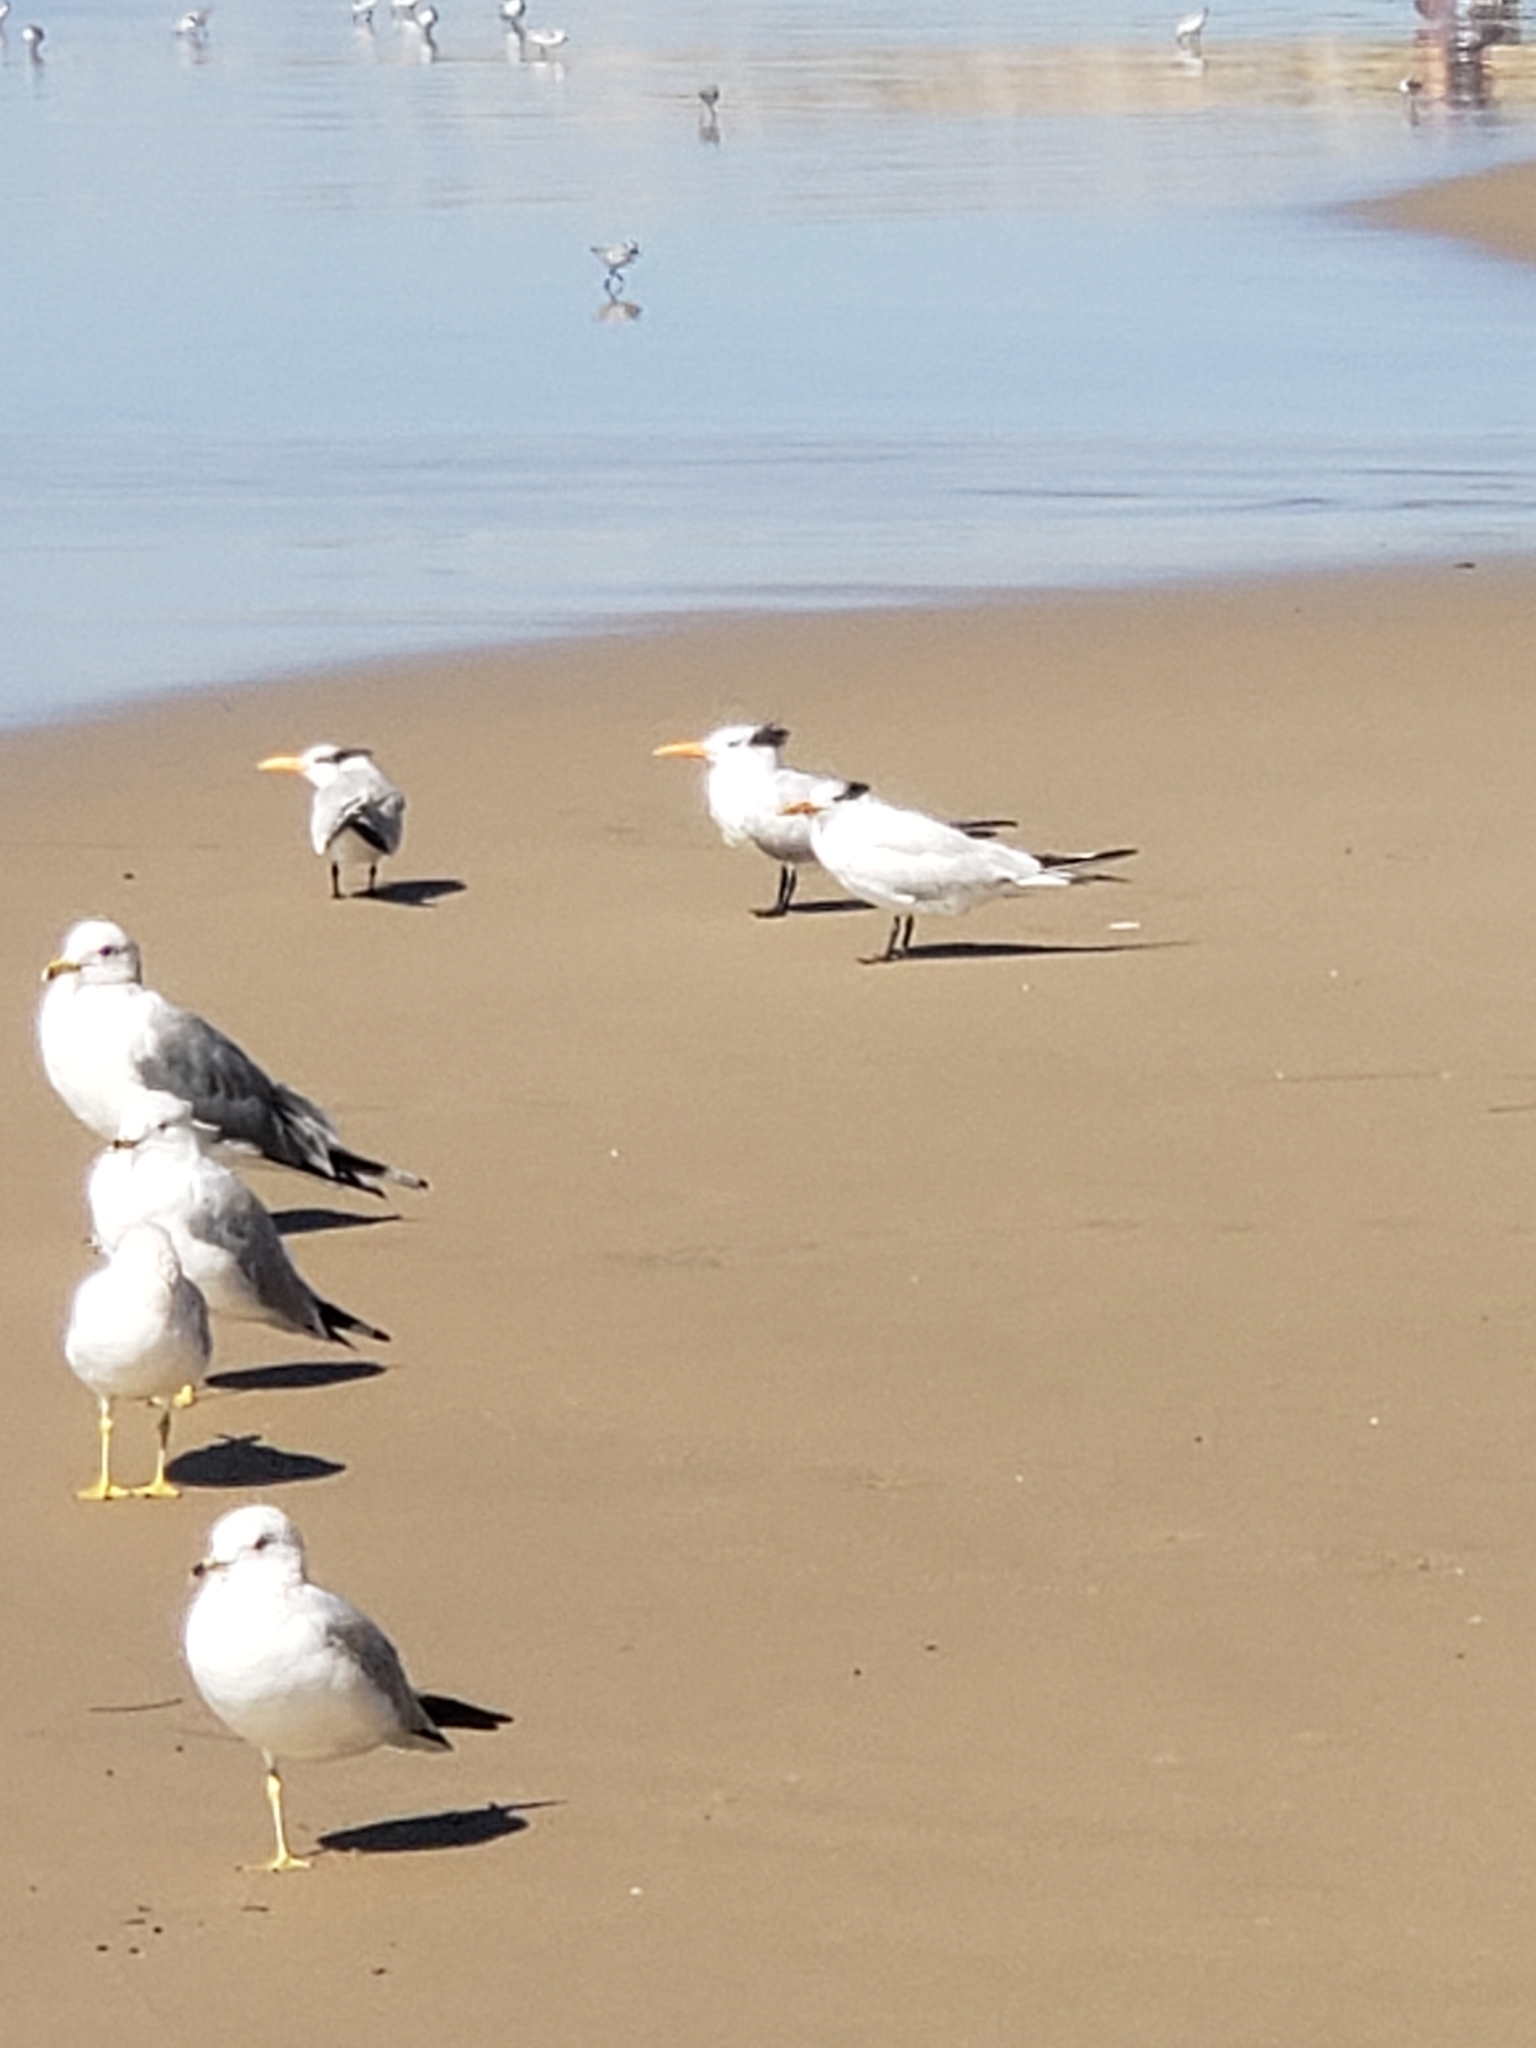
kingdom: Animalia
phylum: Chordata
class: Aves
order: Charadriiformes
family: Laridae
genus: Thalasseus
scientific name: Thalasseus maximus
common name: Royal tern
